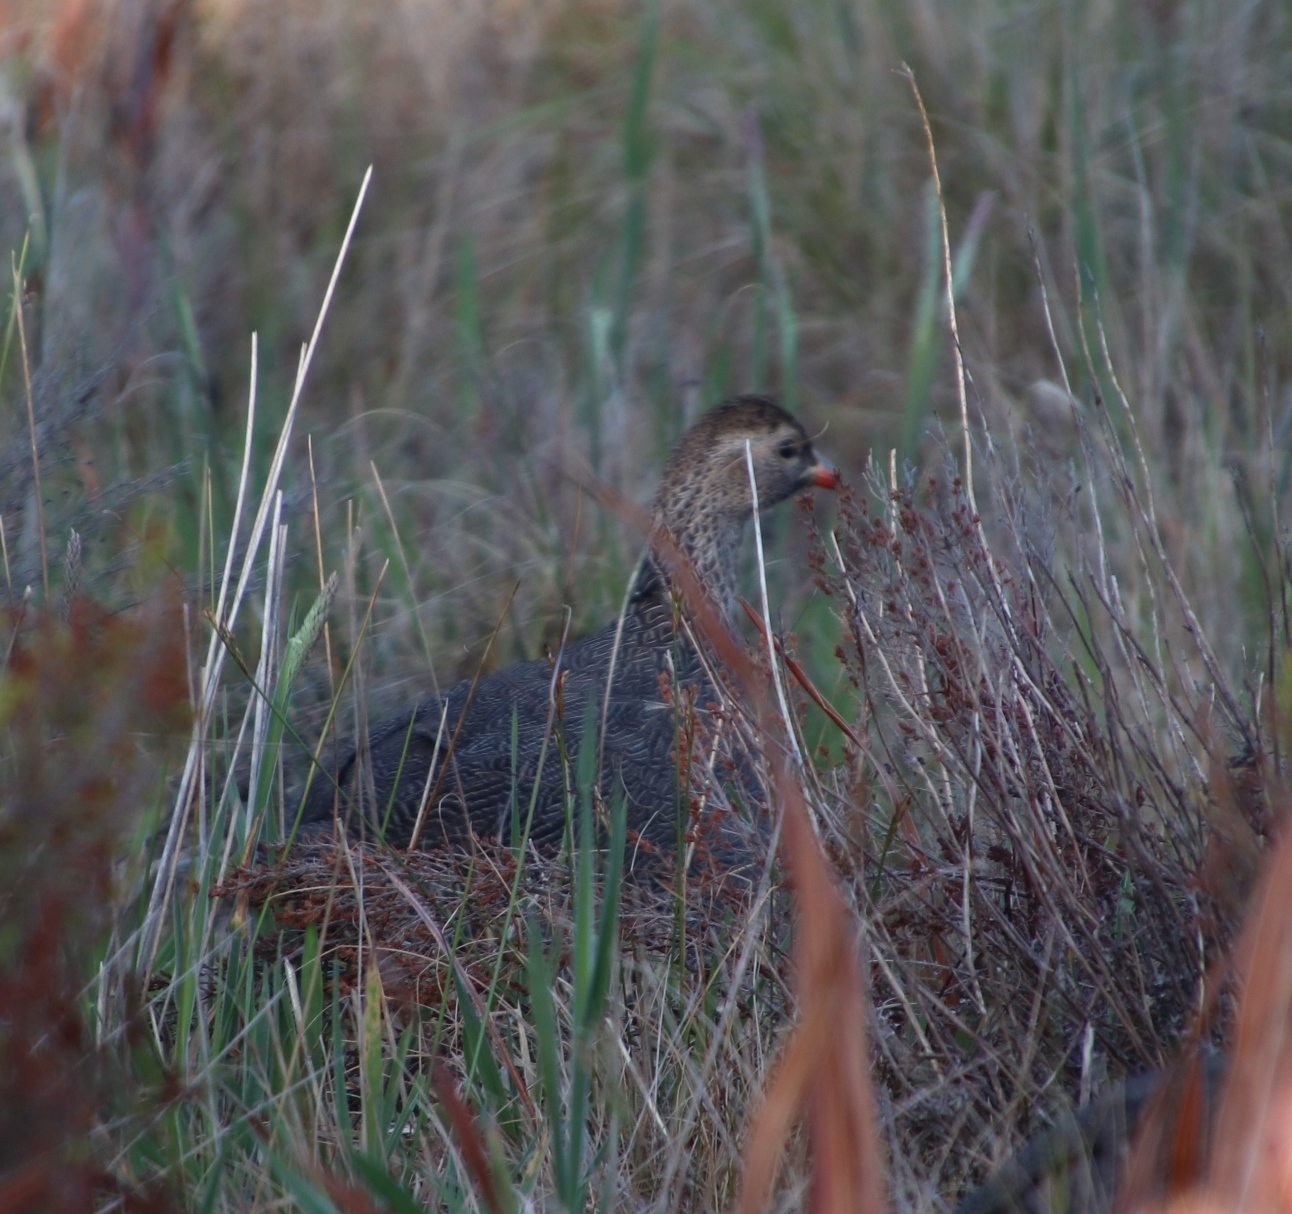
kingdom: Animalia
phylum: Chordata
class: Aves
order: Galliformes
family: Phasianidae
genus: Pternistis
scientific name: Pternistis capensis
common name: Cape spurfowl
